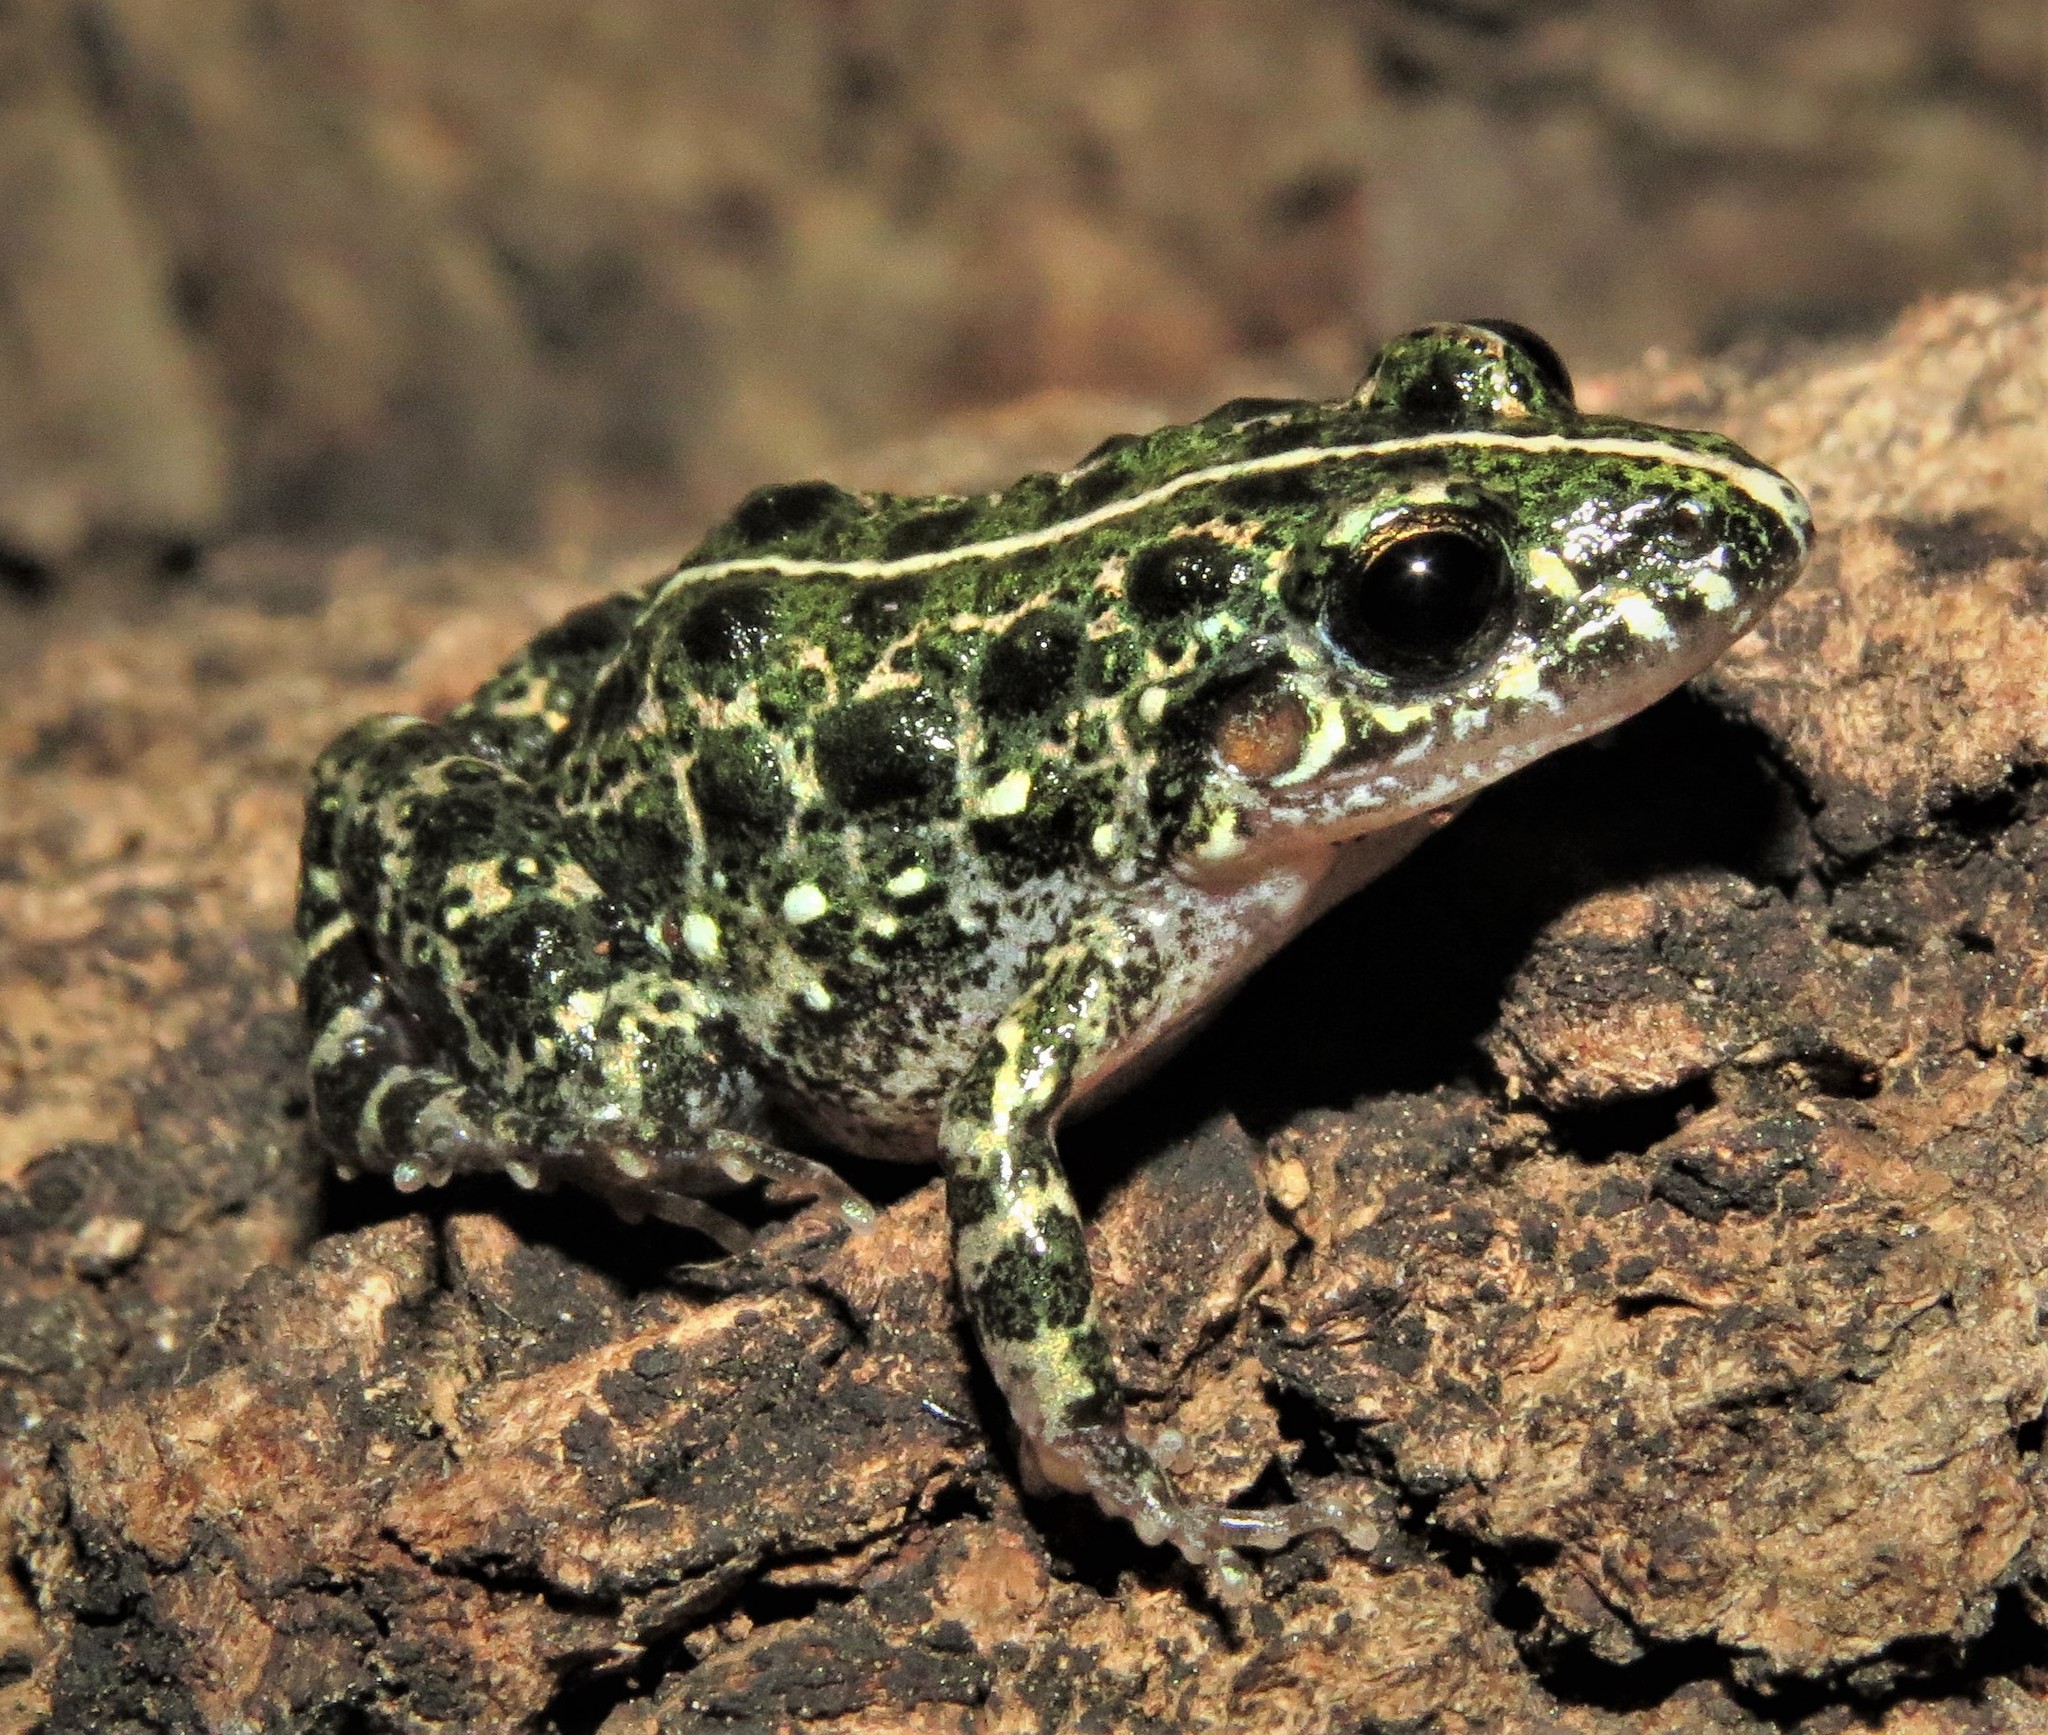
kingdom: Animalia
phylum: Chordata
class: Amphibia
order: Anura
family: Leptodactylidae
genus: Adenomera
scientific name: Adenomera saci
